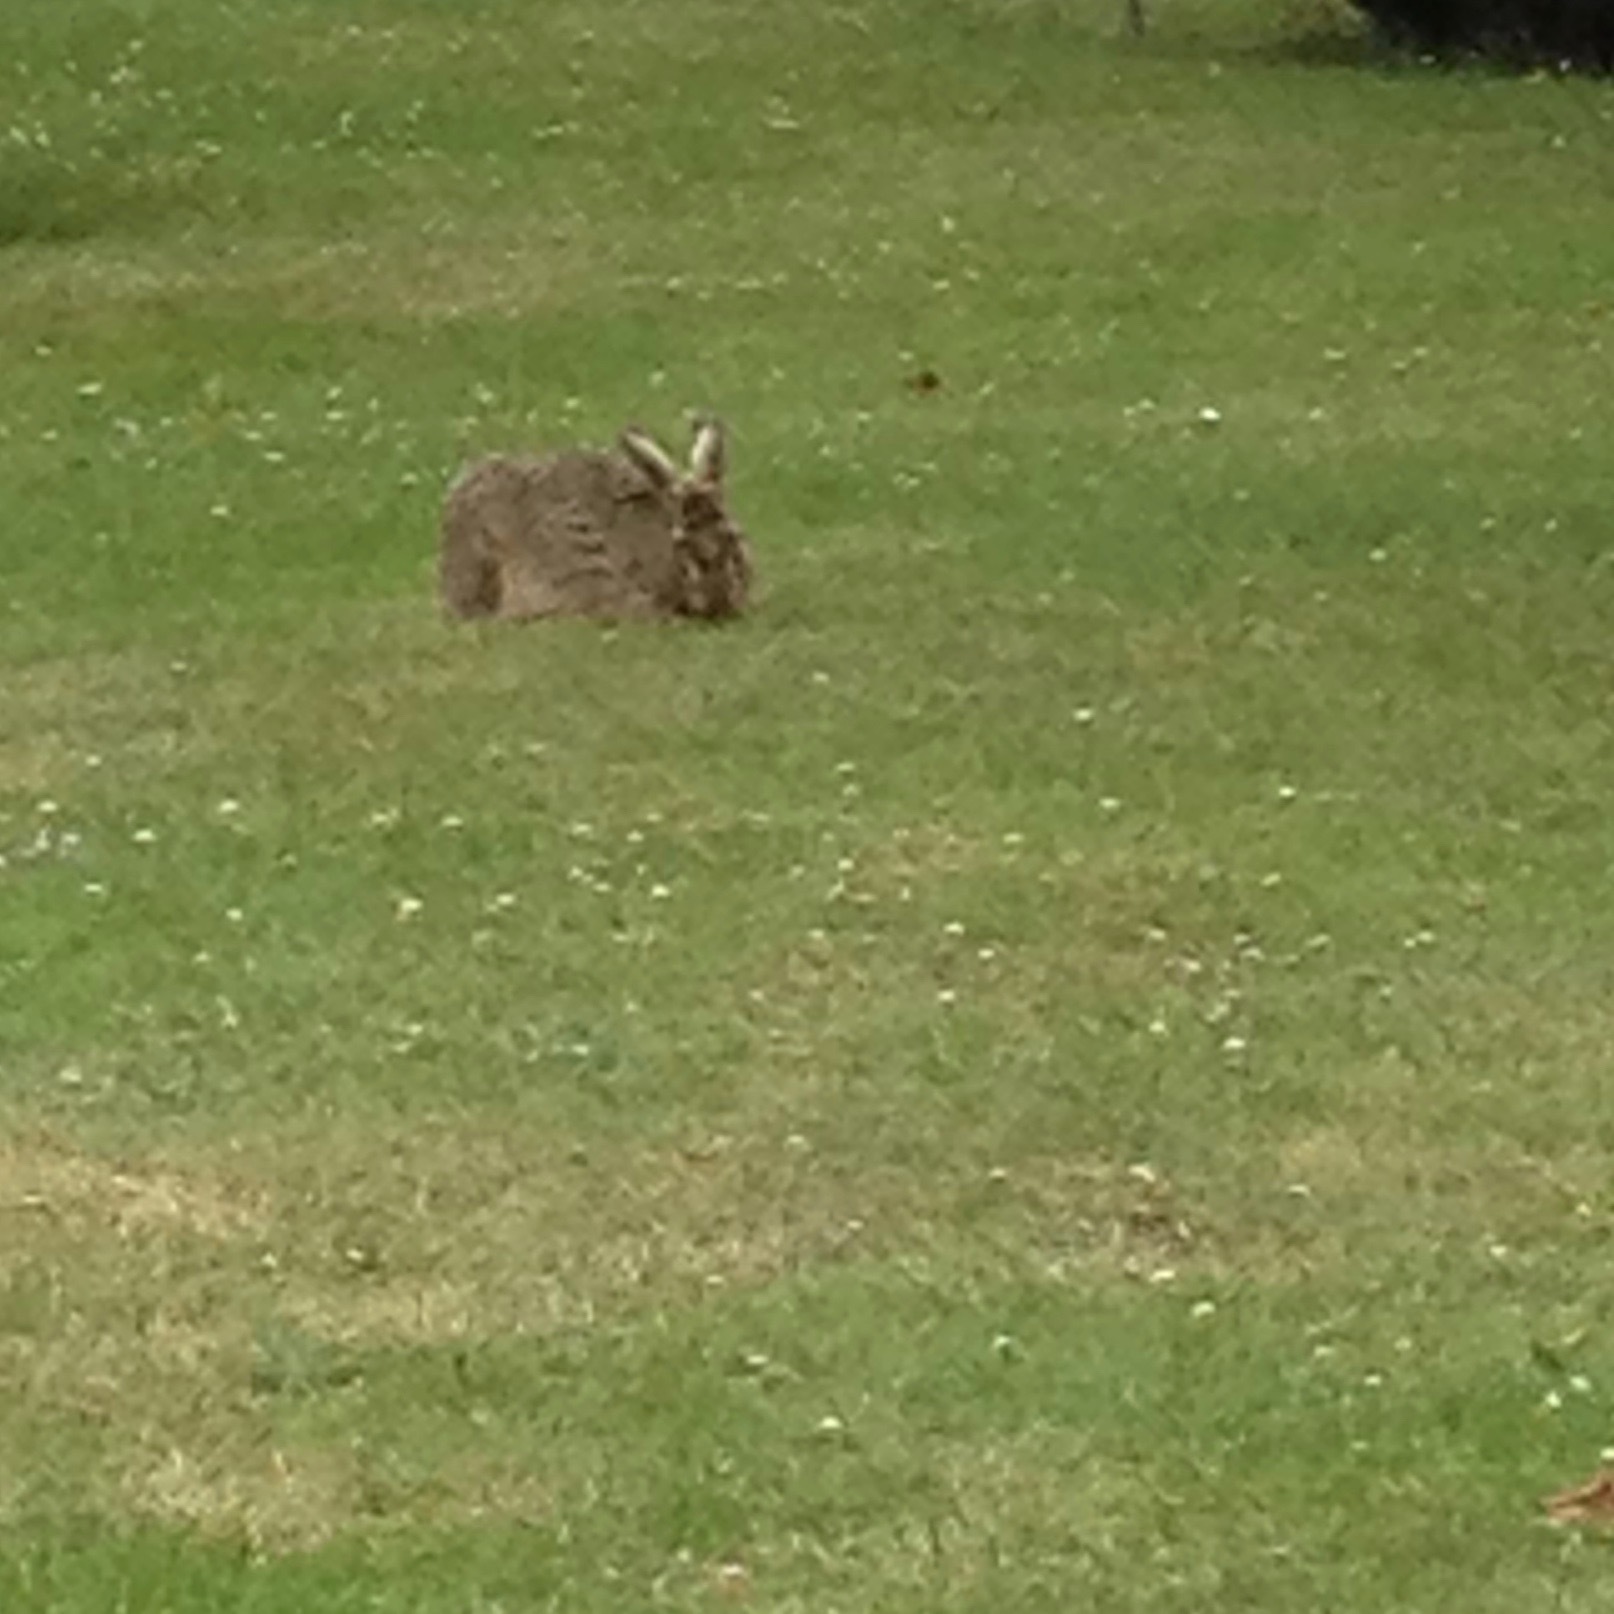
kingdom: Animalia
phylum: Chordata
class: Mammalia
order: Lagomorpha
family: Leporidae
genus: Lepus
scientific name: Lepus europaeus
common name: European hare
